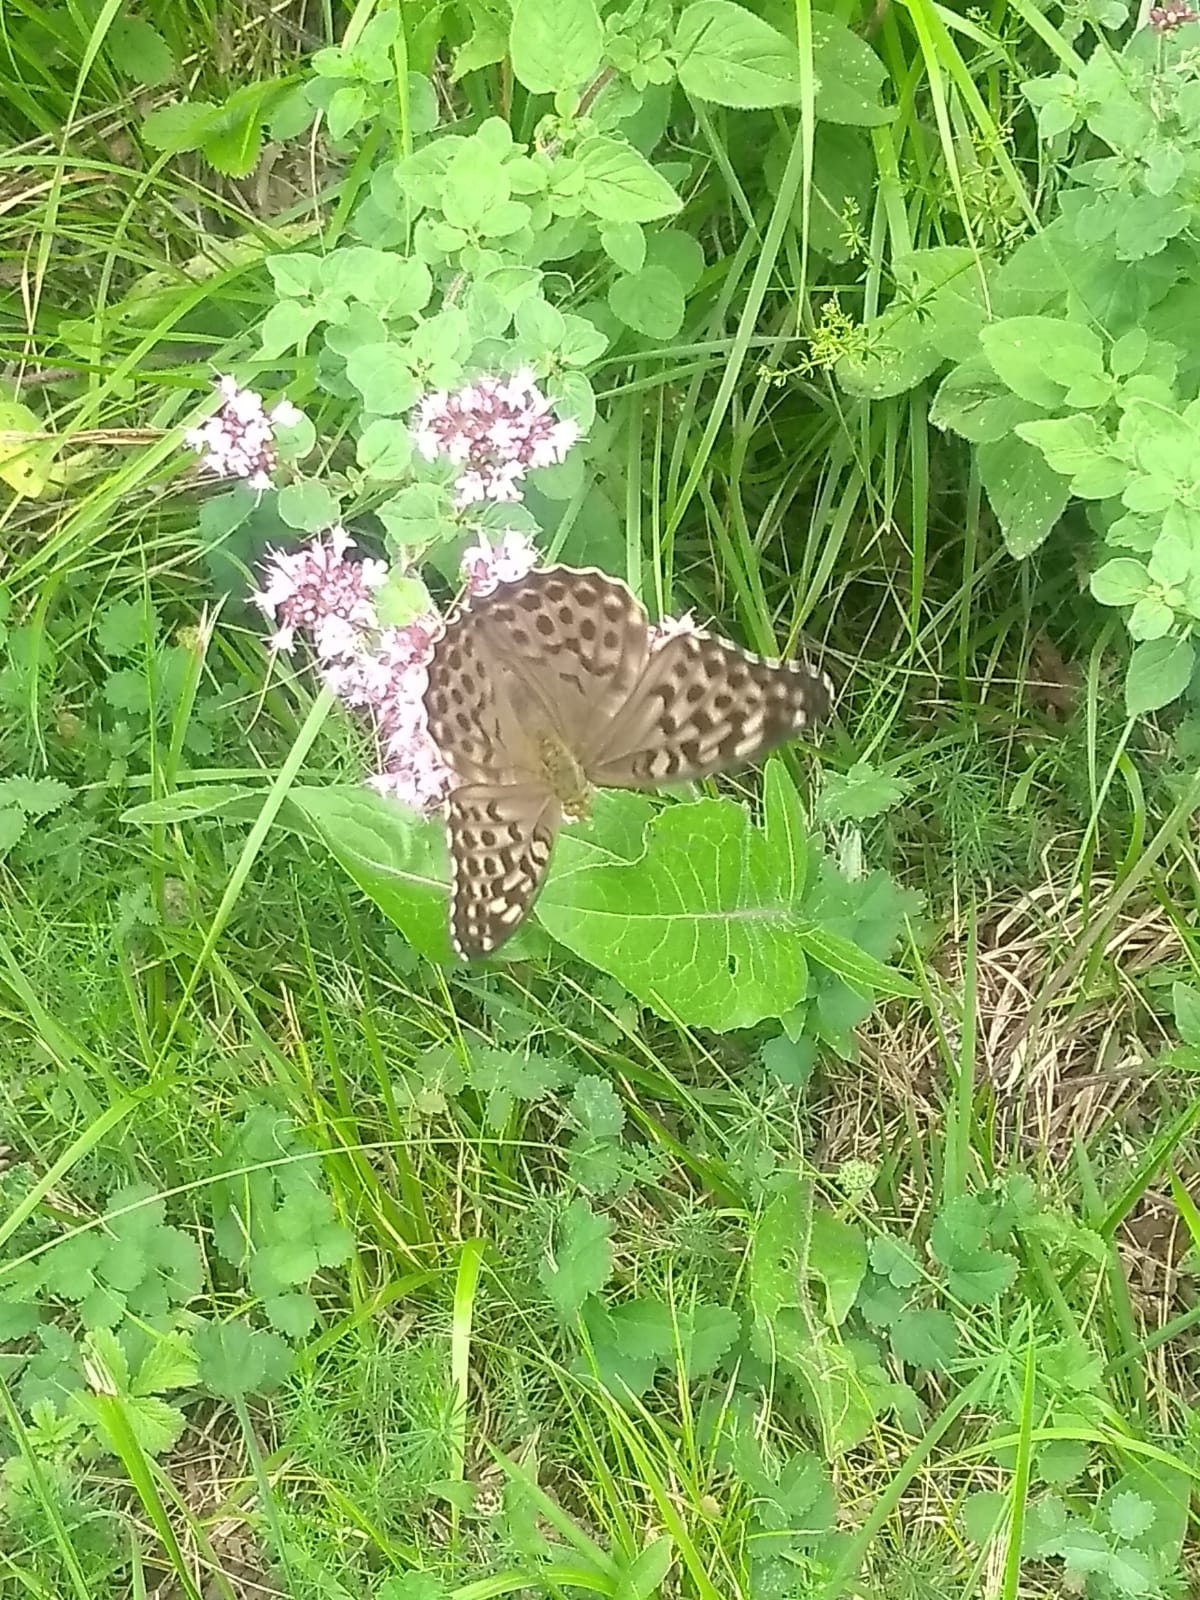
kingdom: Animalia
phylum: Arthropoda
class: Insecta
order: Lepidoptera
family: Nymphalidae
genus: Argynnis
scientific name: Argynnis paphia
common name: Silver-washed fritillary
